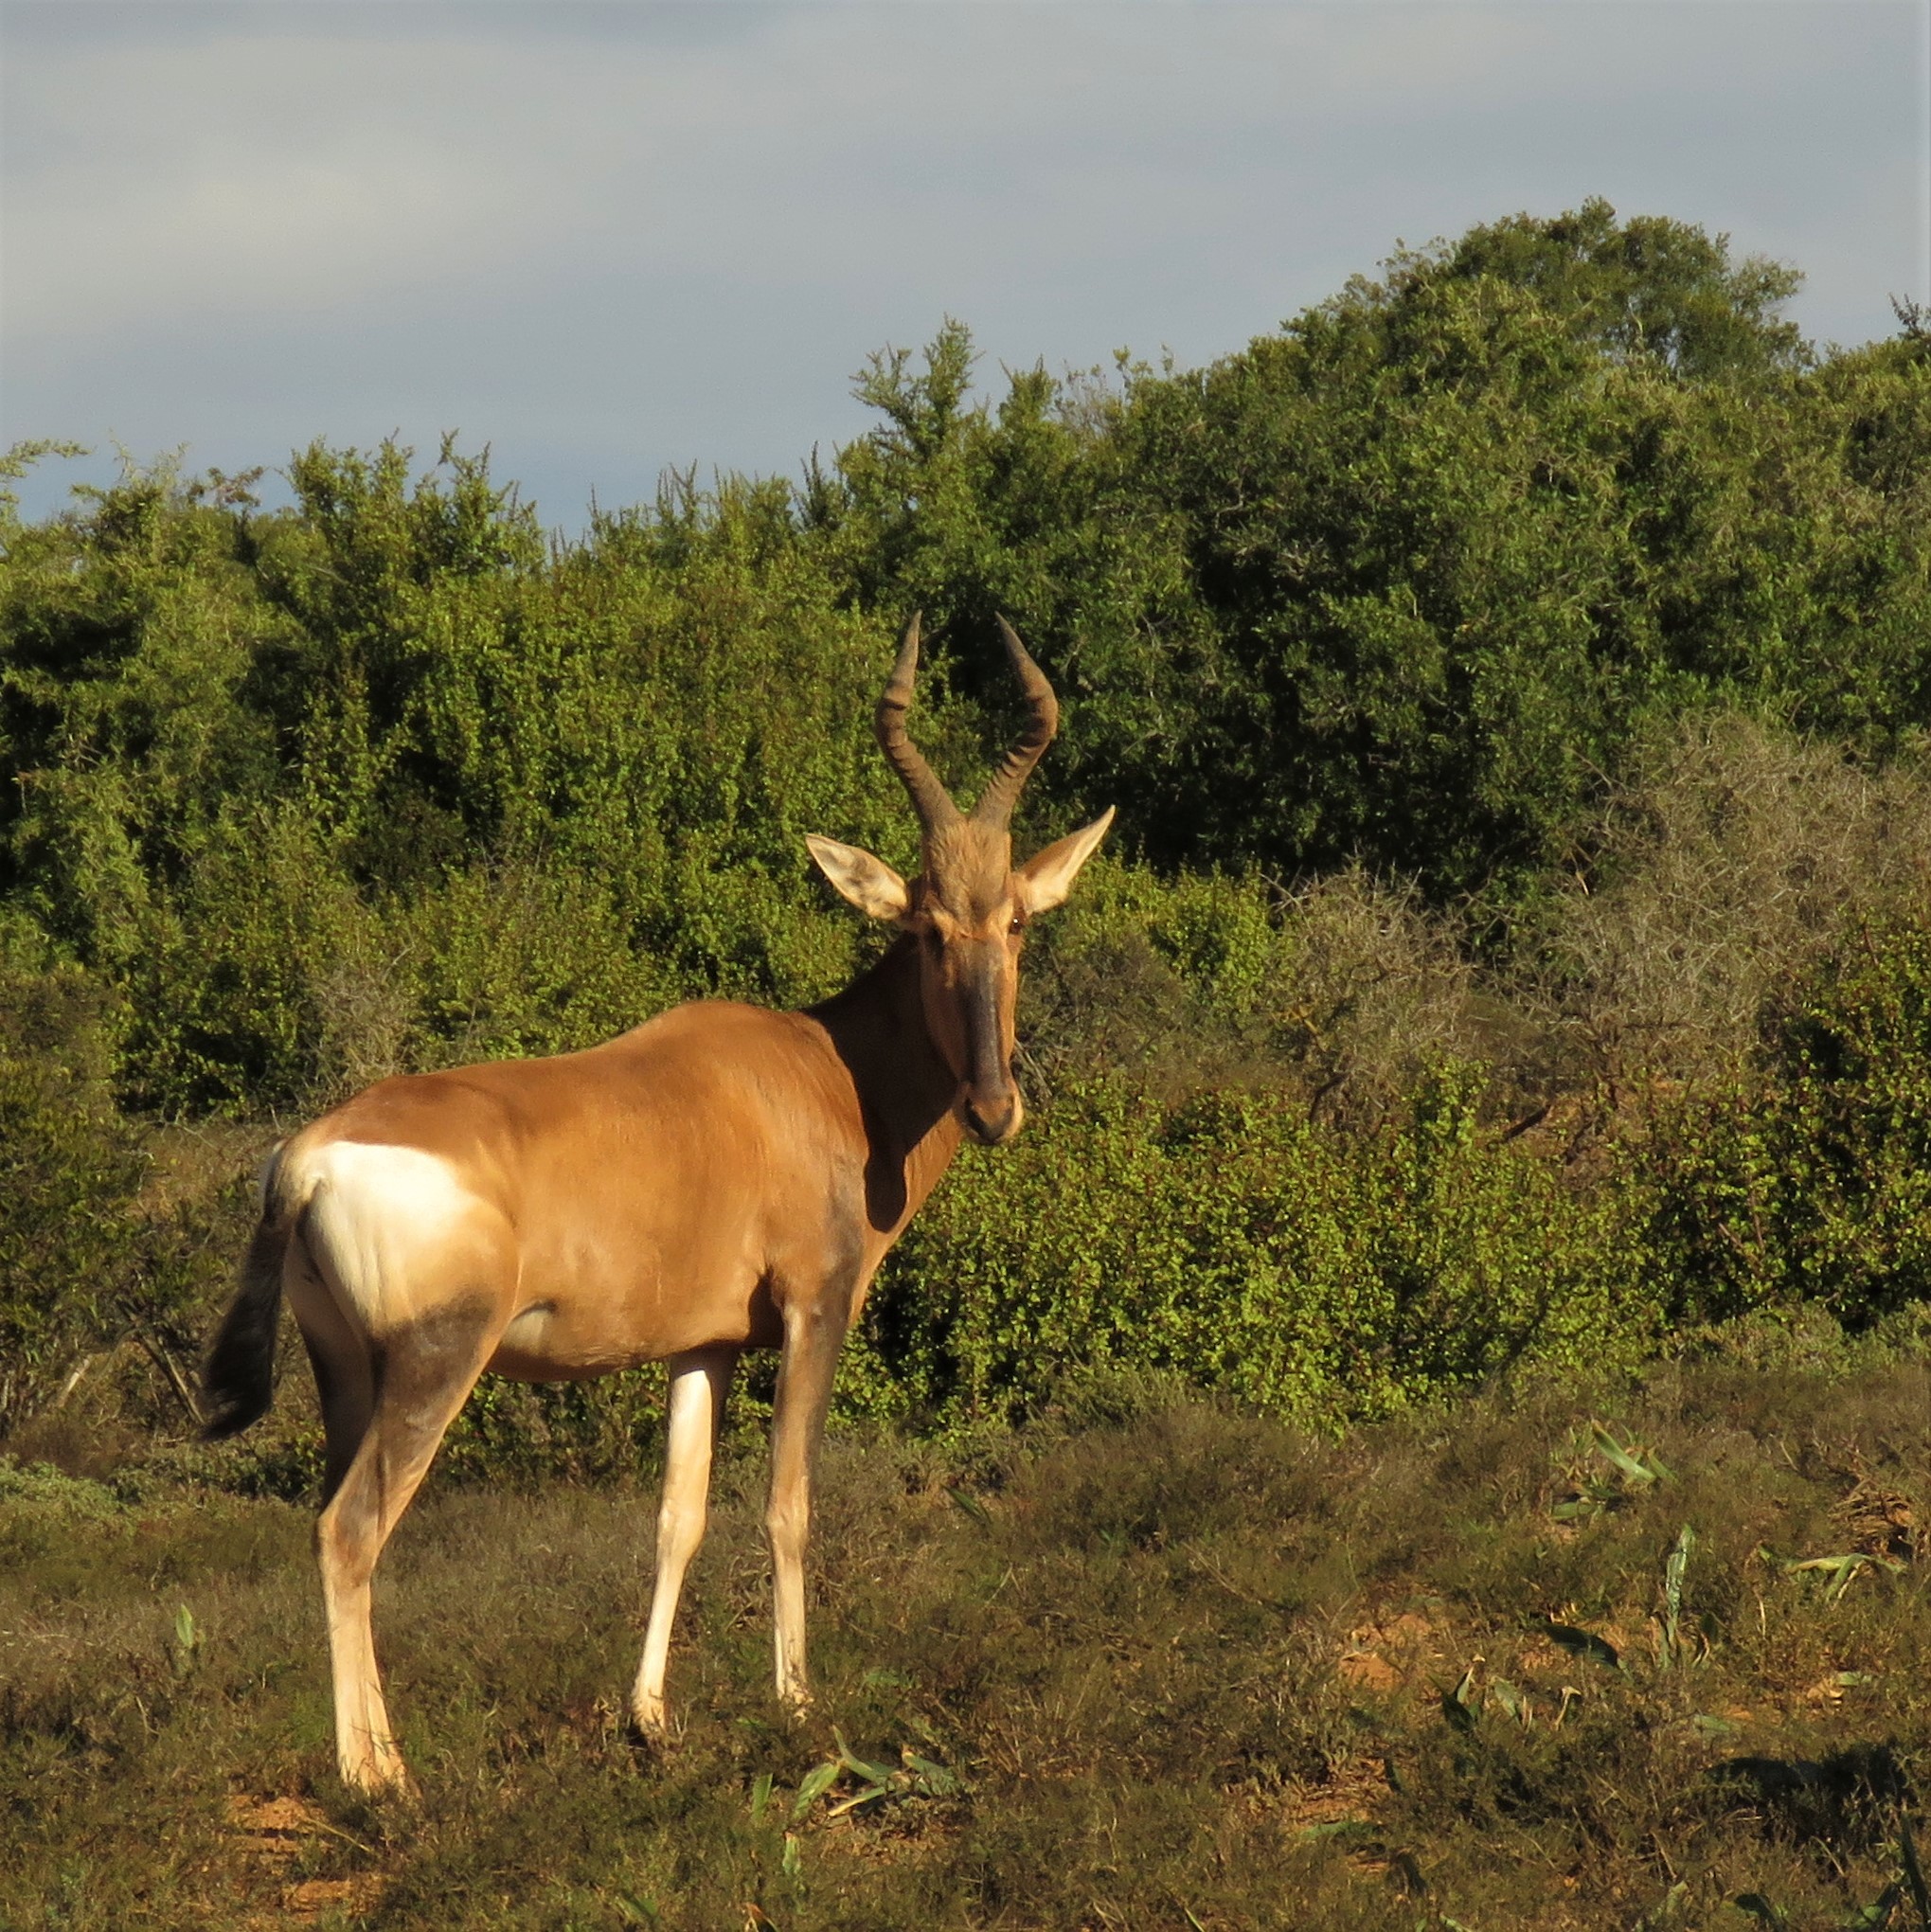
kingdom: Animalia
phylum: Chordata
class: Mammalia
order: Artiodactyla
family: Bovidae
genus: Alcelaphus
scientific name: Alcelaphus caama
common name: Red hartebeest
